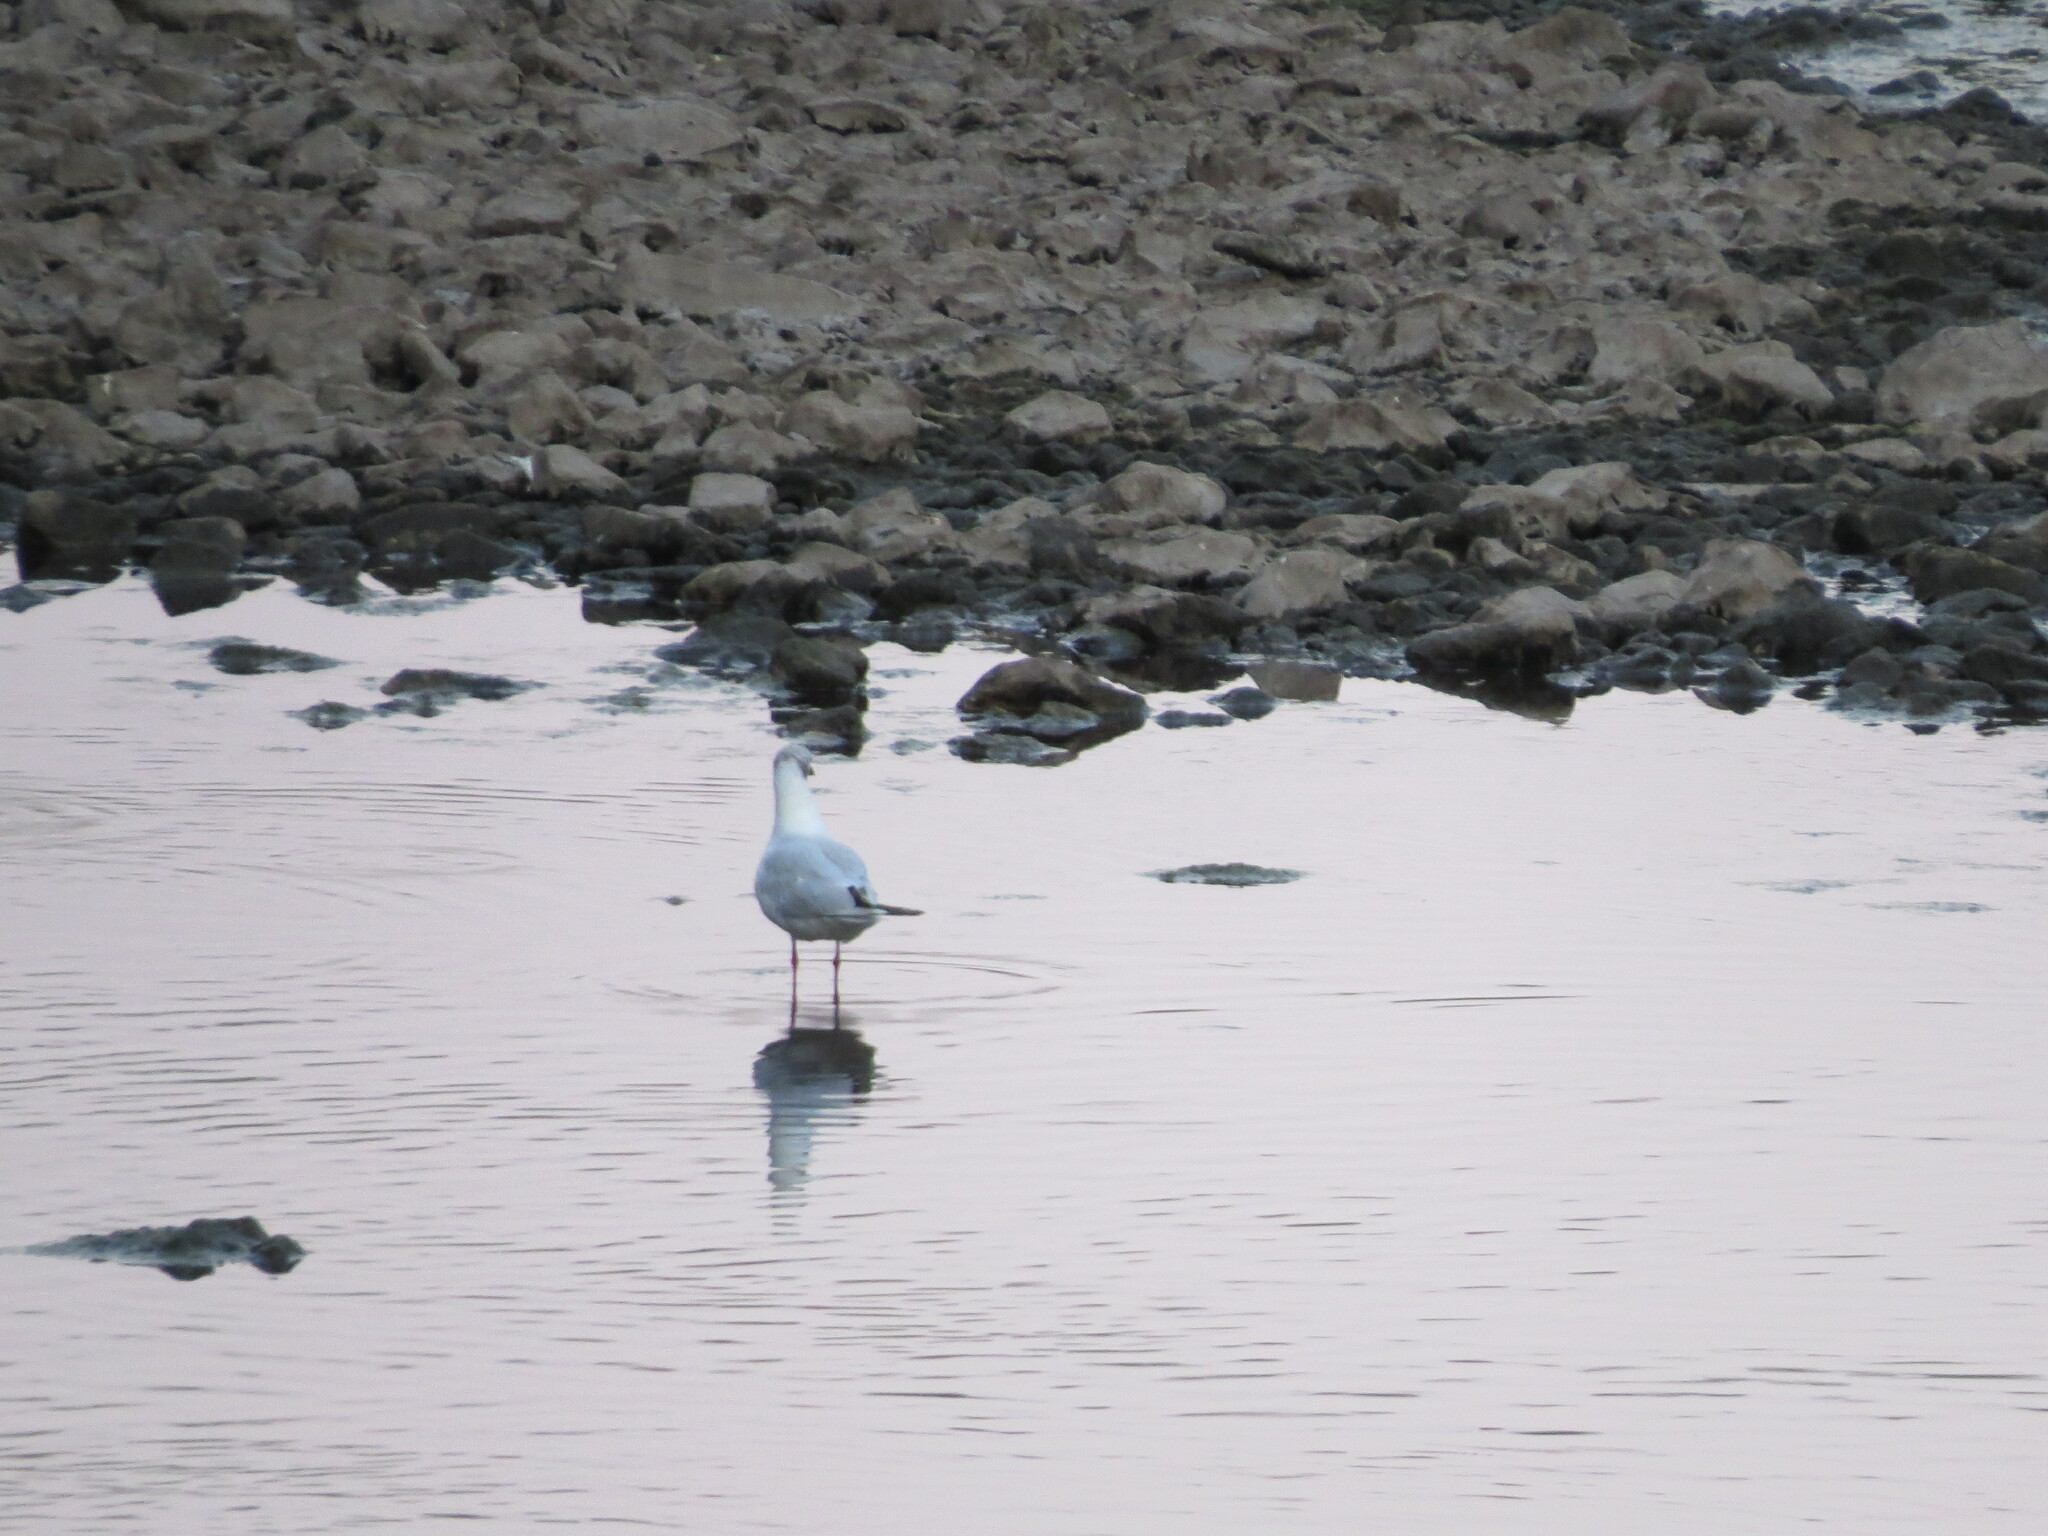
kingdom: Animalia
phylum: Chordata
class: Aves
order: Charadriiformes
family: Laridae
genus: Chroicocephalus
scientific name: Chroicocephalus ridibundus
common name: Black-headed gull
